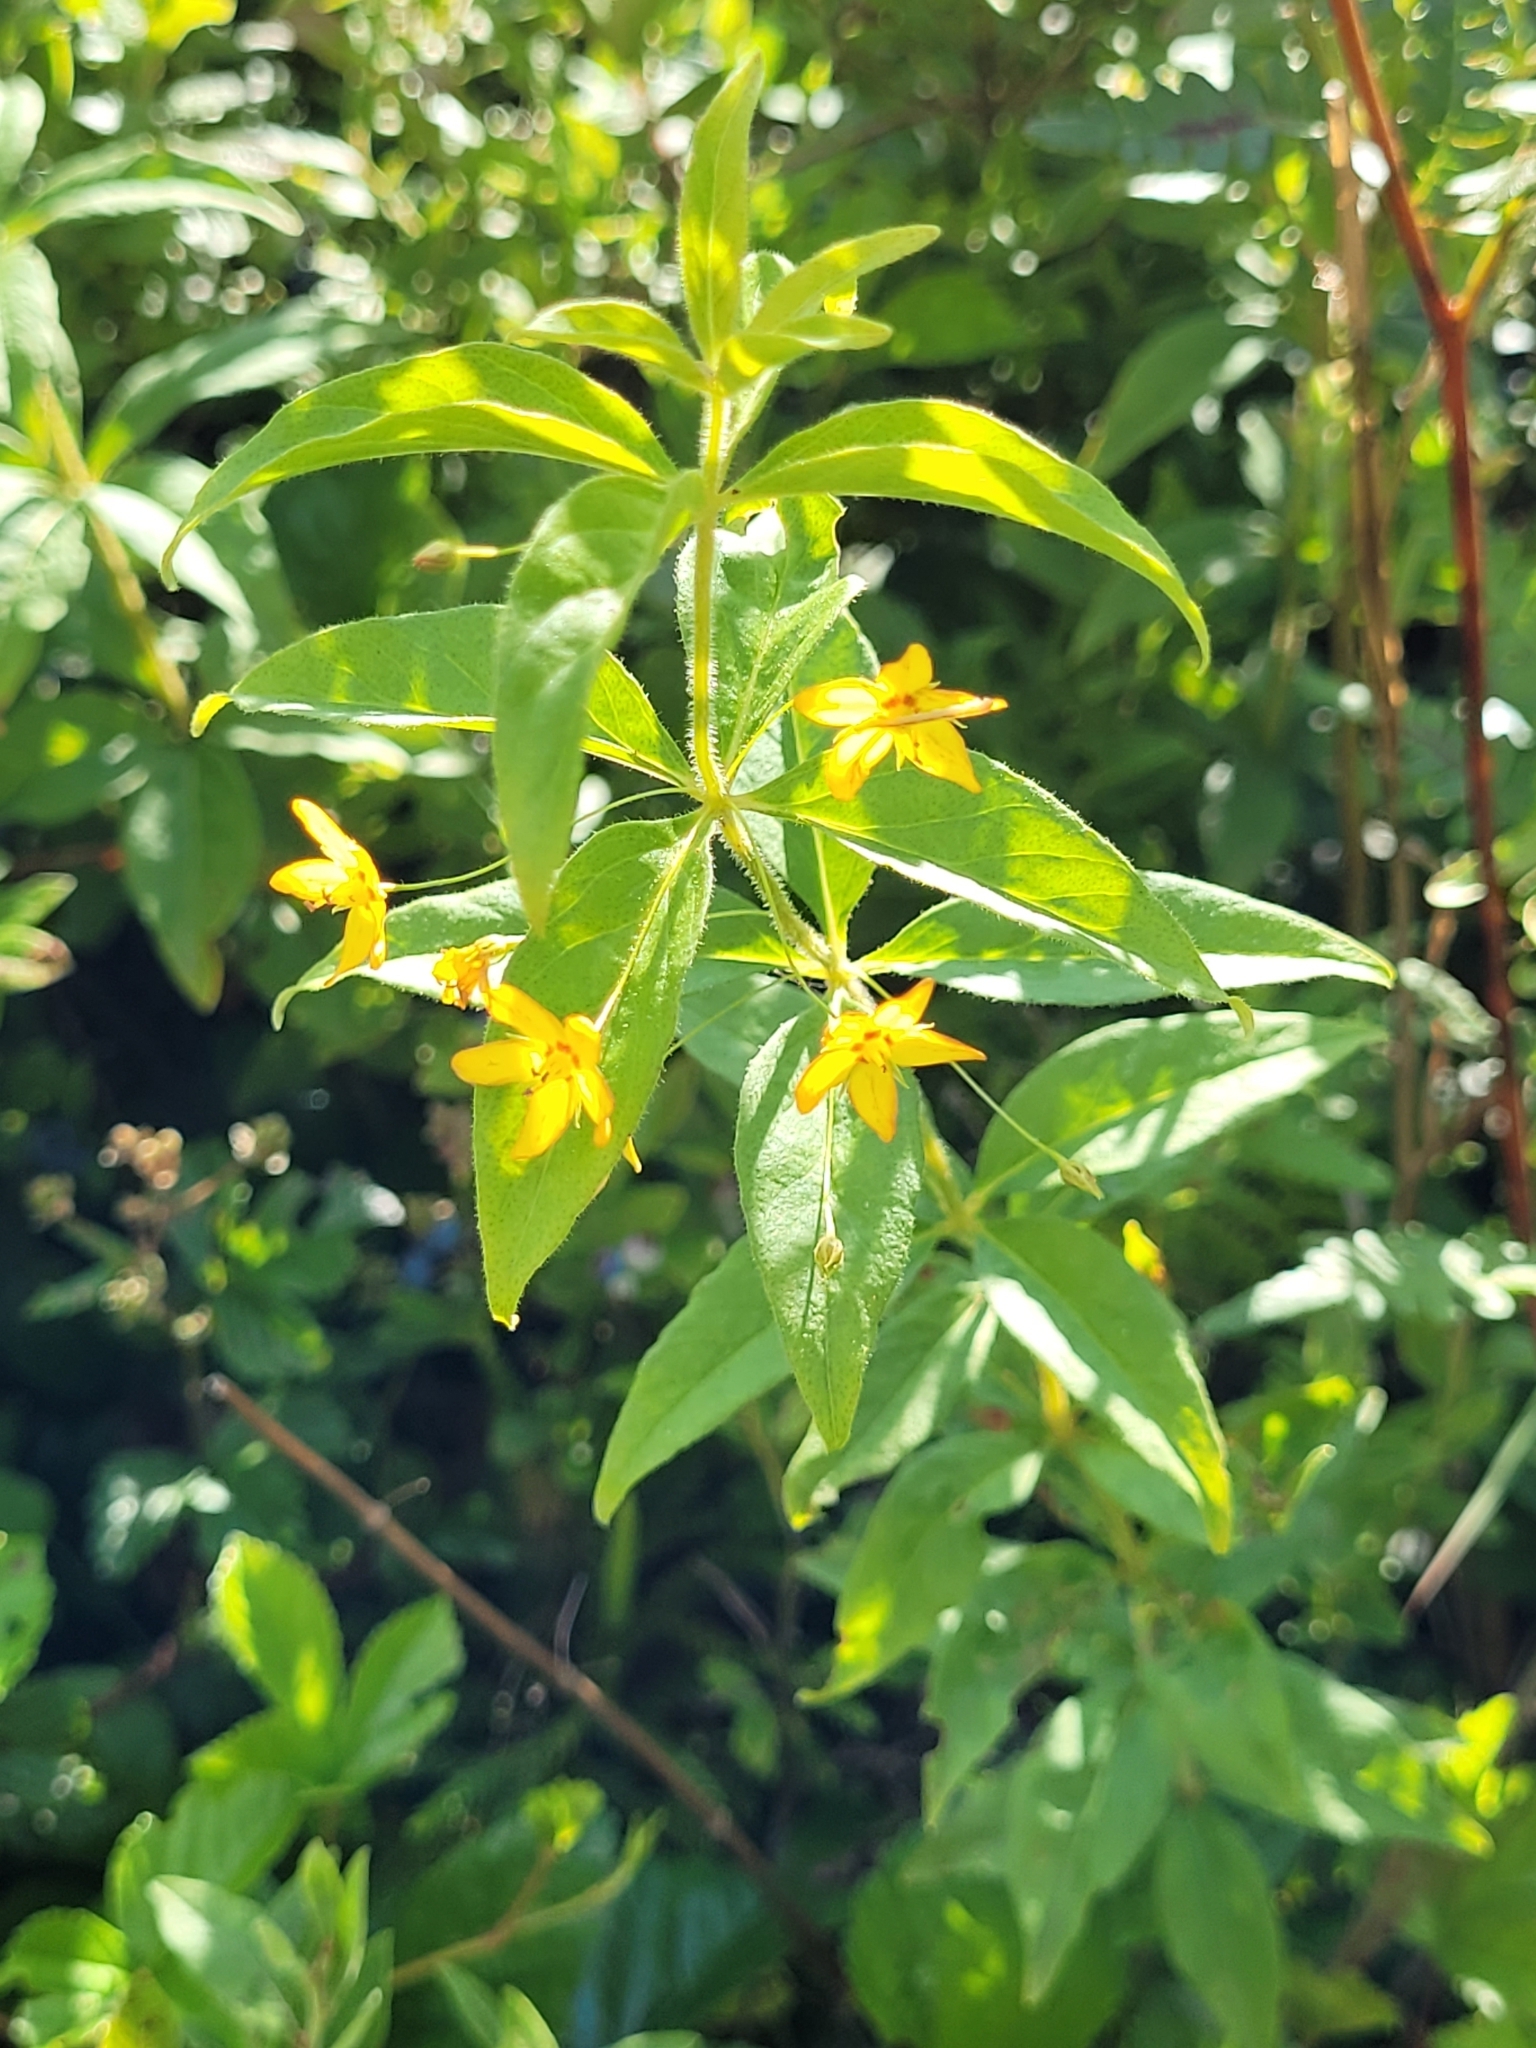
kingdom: Plantae
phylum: Tracheophyta
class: Magnoliopsida
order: Ericales
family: Primulaceae
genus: Lysimachia
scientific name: Lysimachia quadrifolia
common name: Whorled loosestrife
